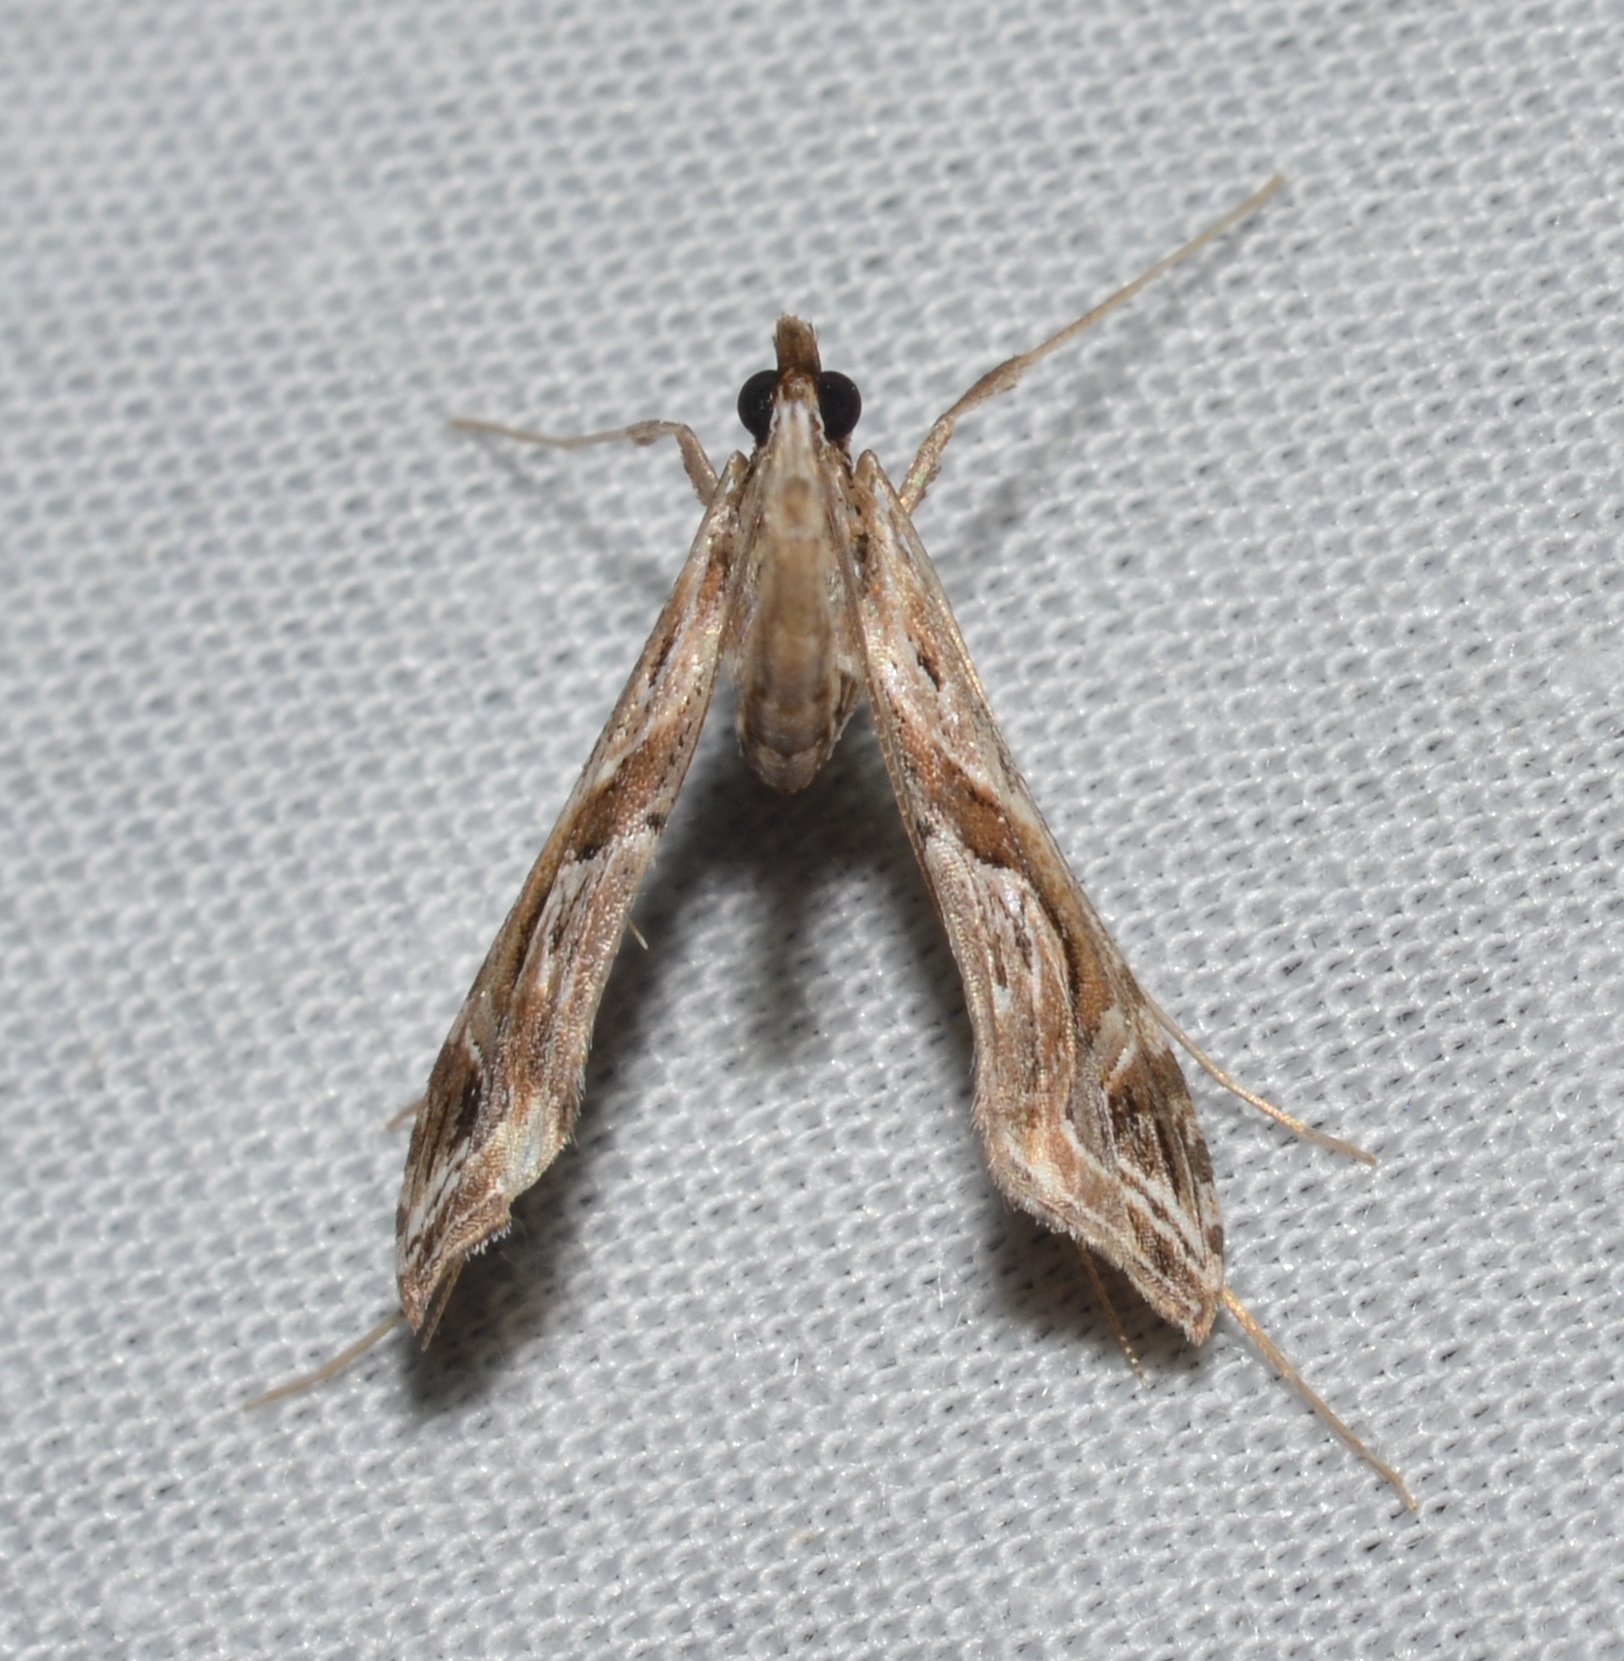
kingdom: Animalia
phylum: Arthropoda
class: Insecta
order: Lepidoptera
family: Crambidae
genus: Lineodes
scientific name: Lineodes integra
